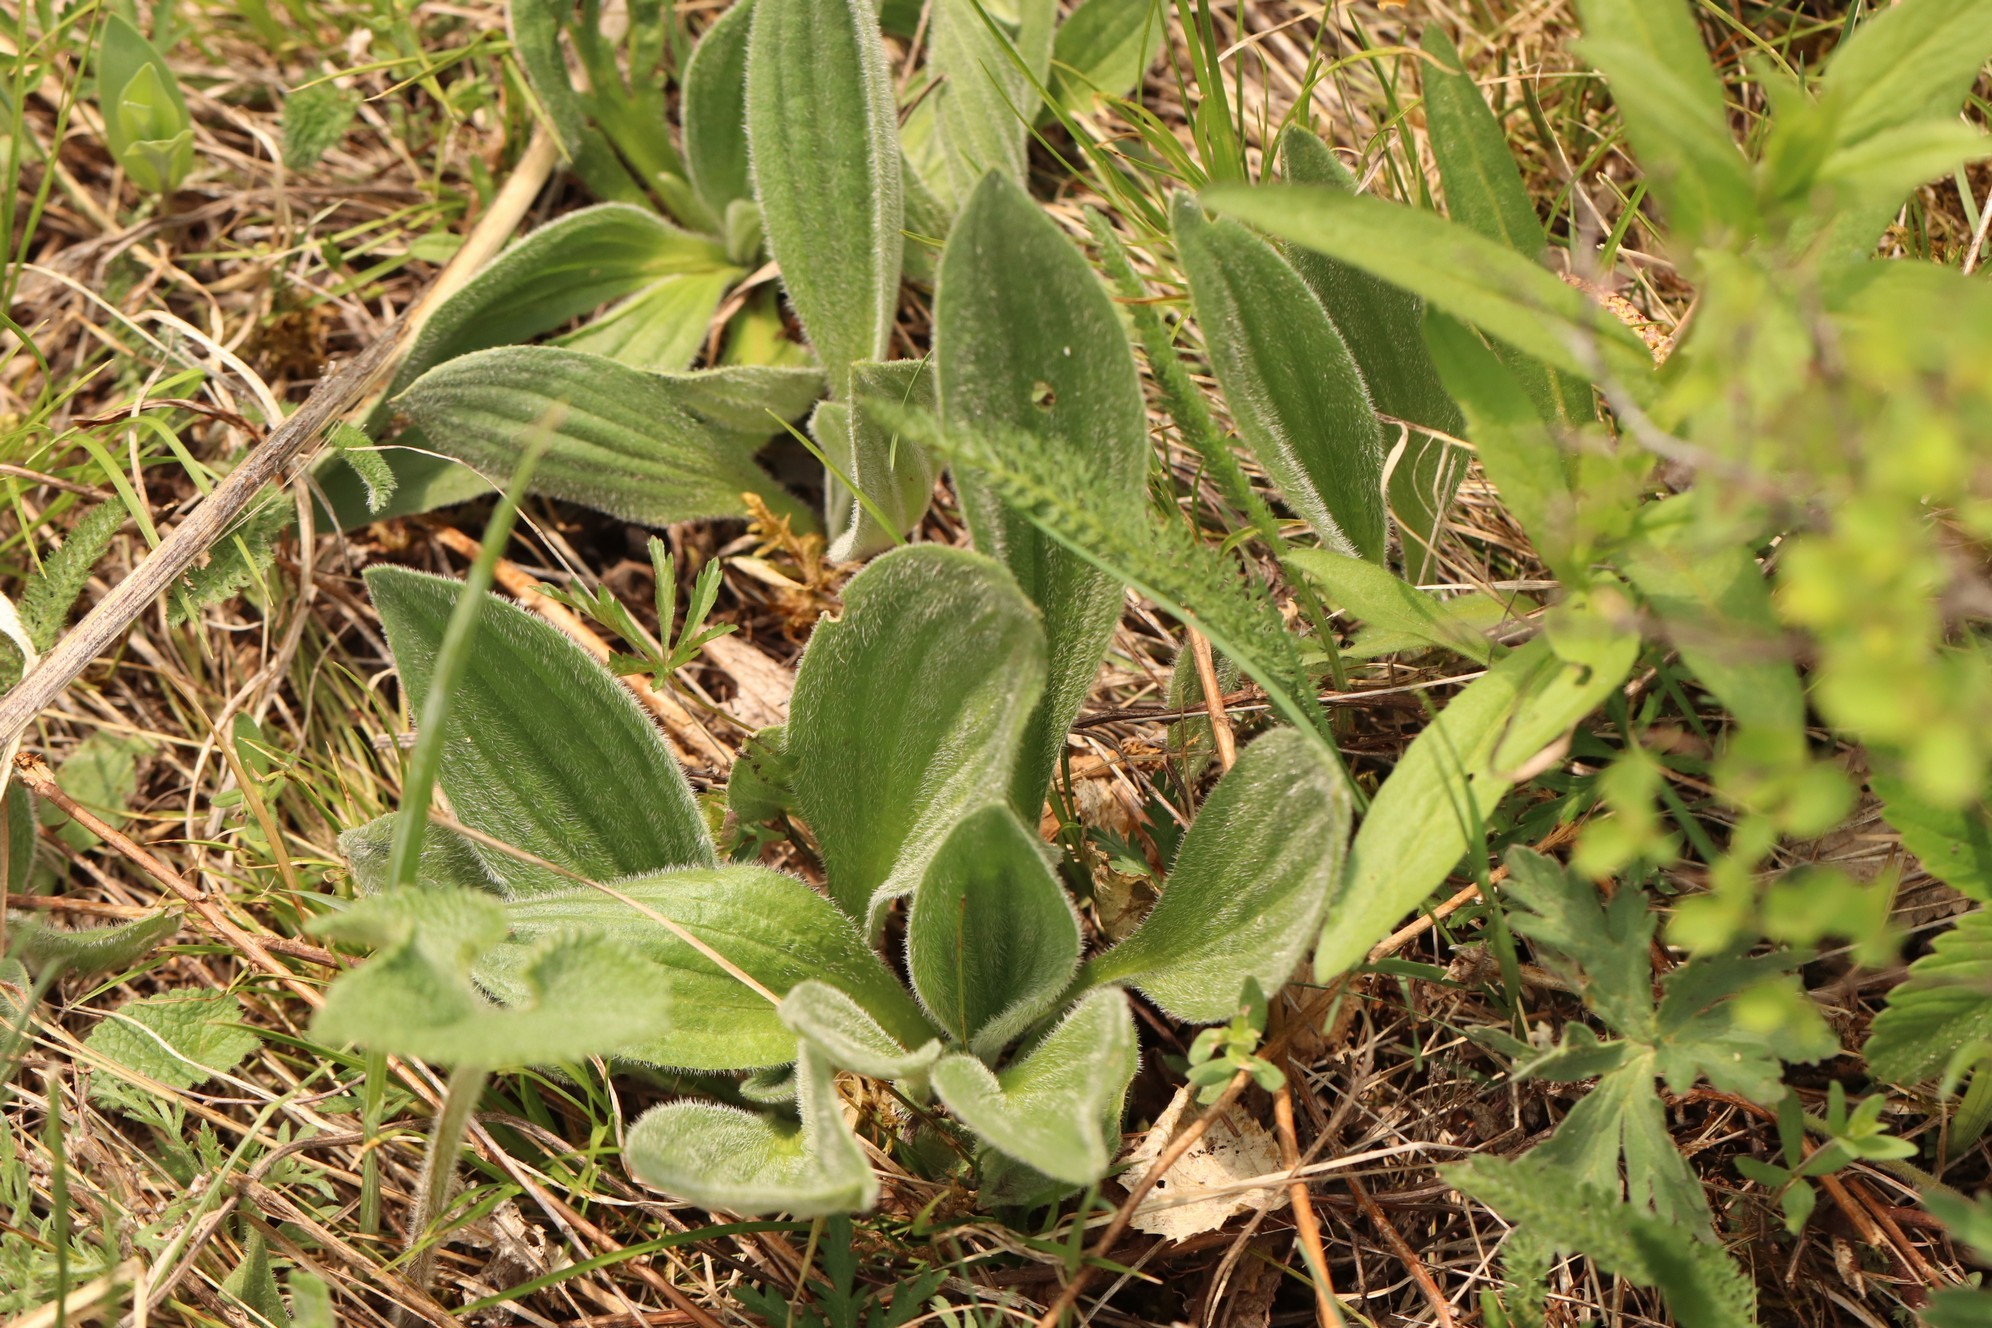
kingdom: Plantae
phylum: Tracheophyta
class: Magnoliopsida
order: Lamiales
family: Plantaginaceae
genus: Plantago
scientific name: Plantago media
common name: Hoary plantain
